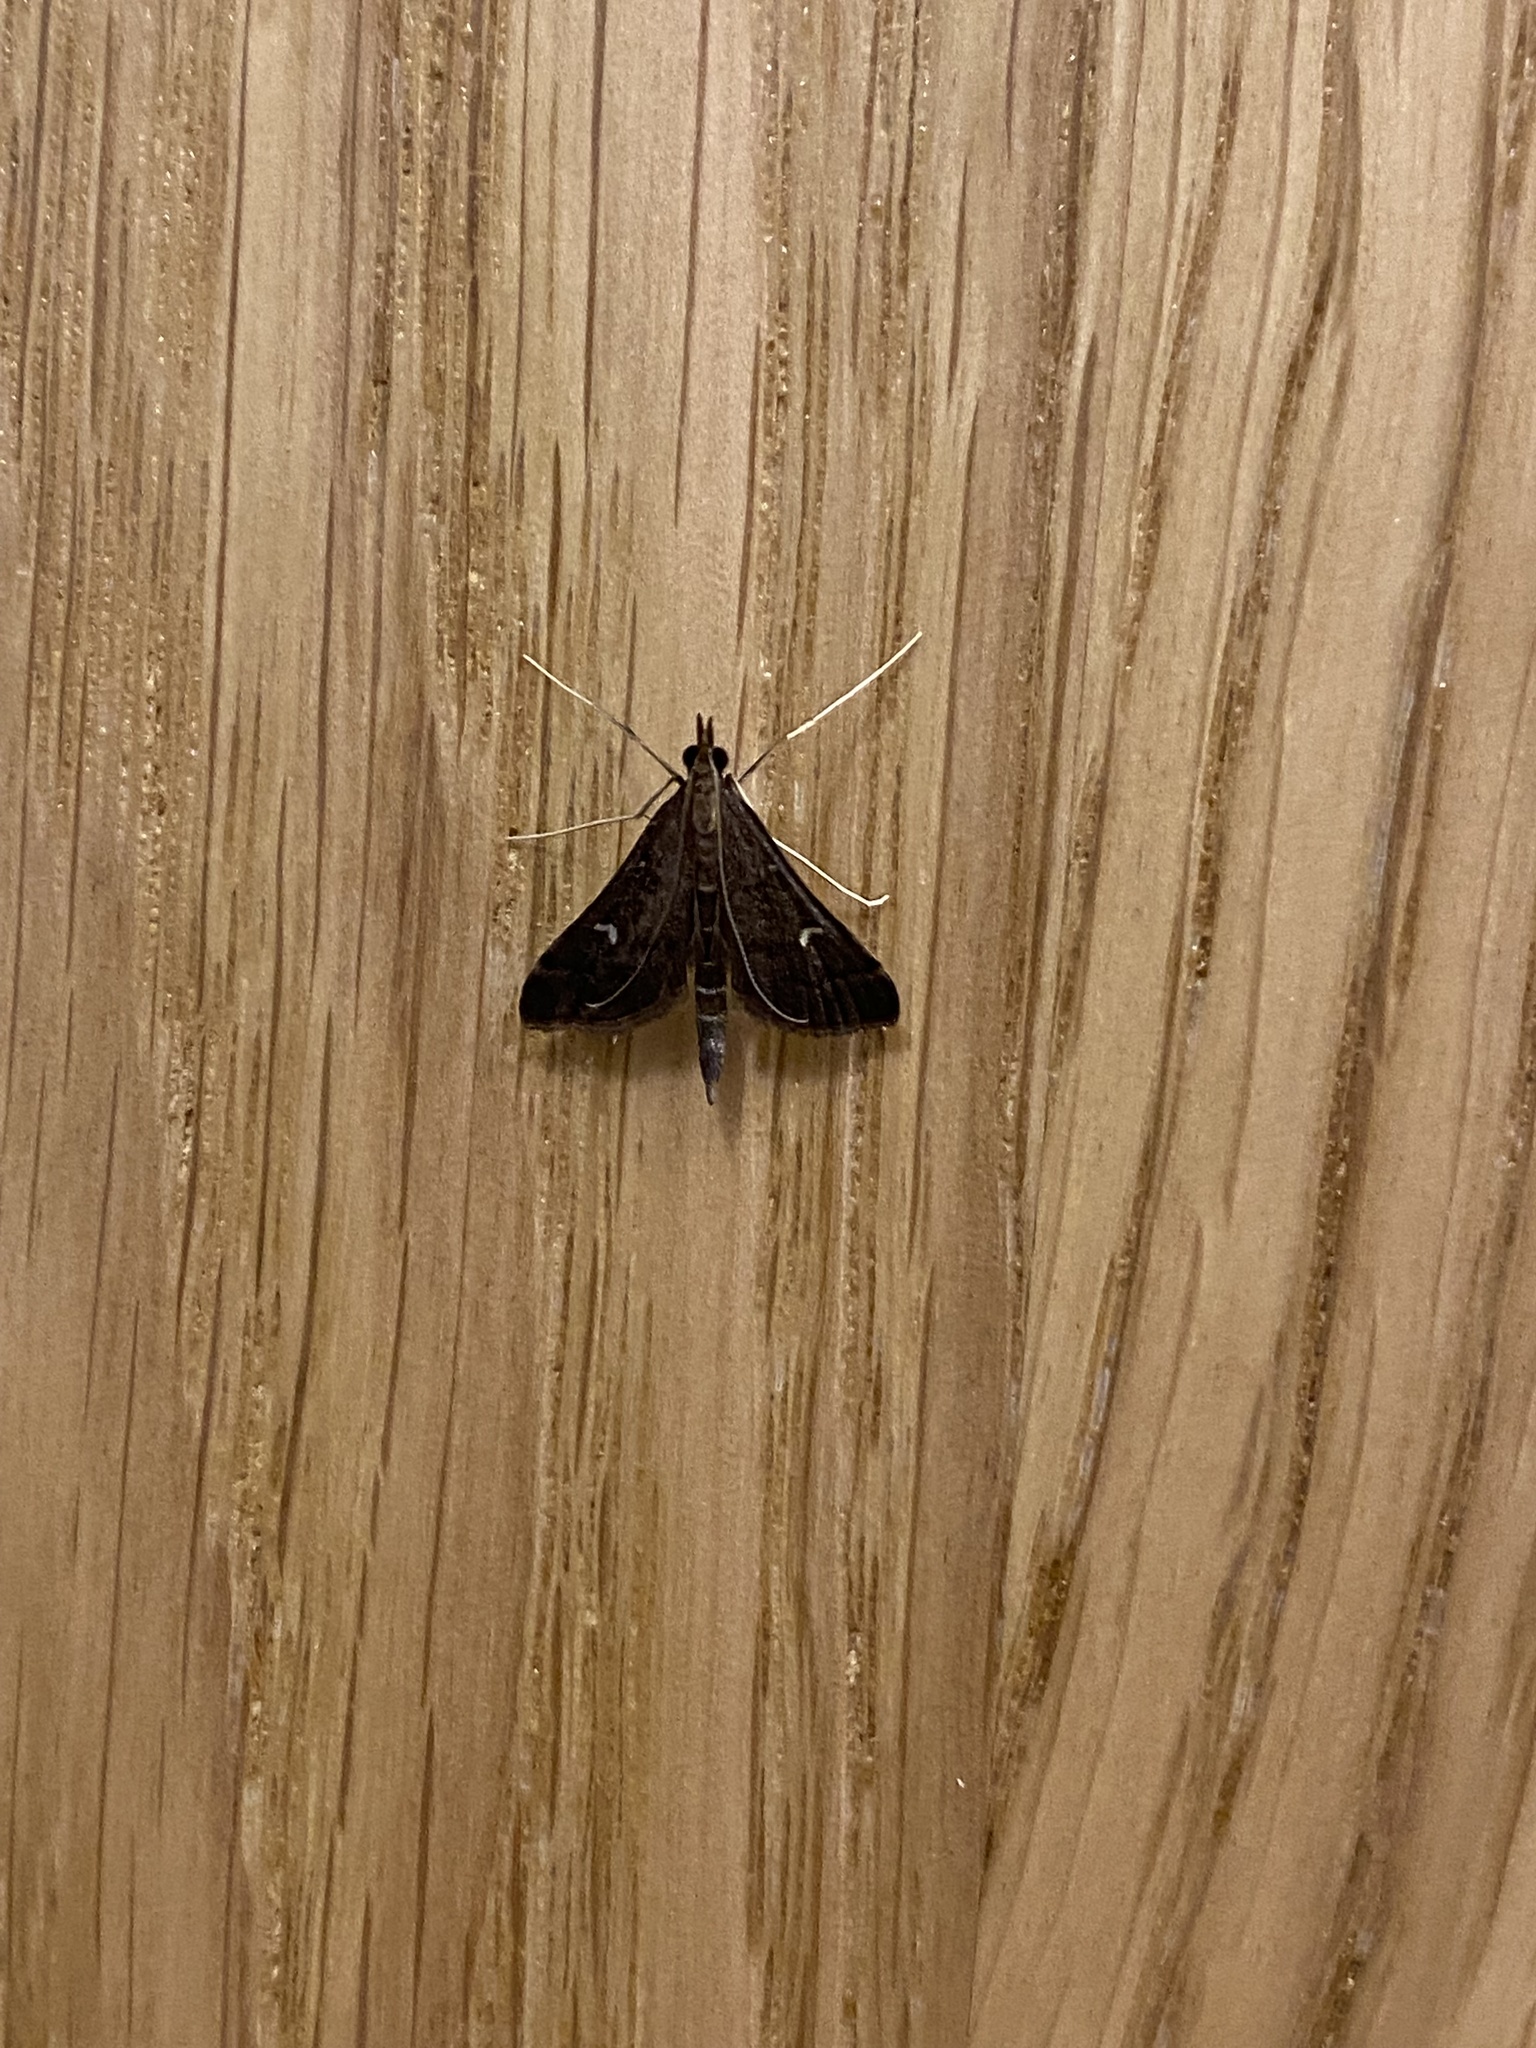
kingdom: Animalia
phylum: Arthropoda
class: Insecta
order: Lepidoptera
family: Crambidae
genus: Stenia
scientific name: Stenia Dolicharthria punctalis
